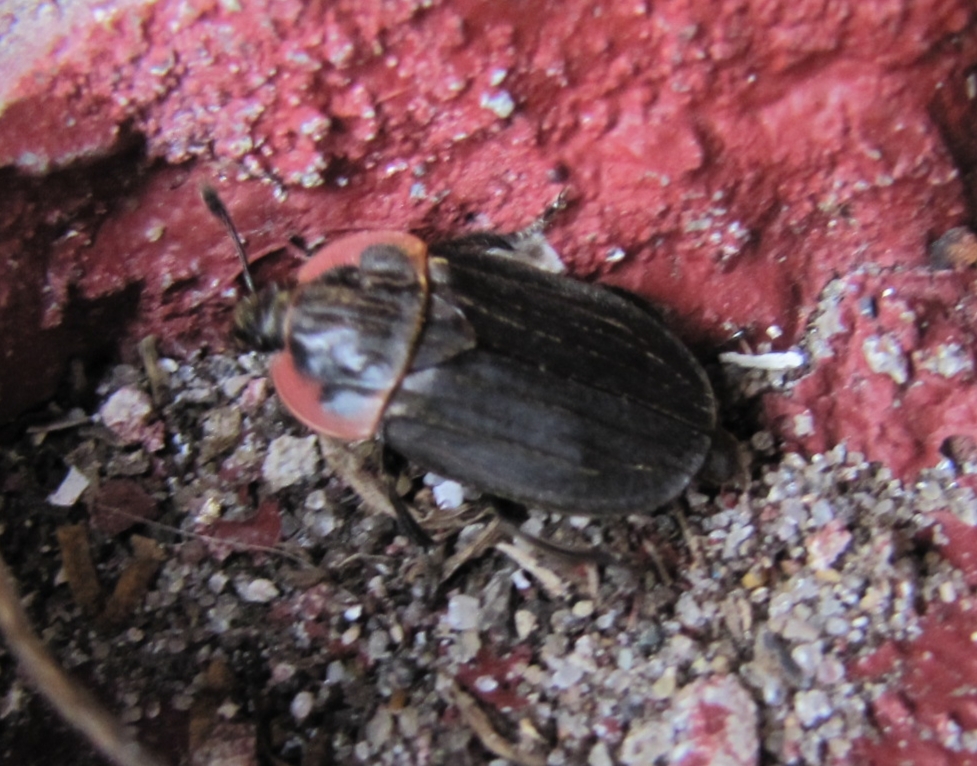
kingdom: Animalia
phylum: Arthropoda
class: Insecta
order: Coleoptera
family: Staphylinidae
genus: Oiceoptoma
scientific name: Oiceoptoma noveboracense
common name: Margined carrion beetle
